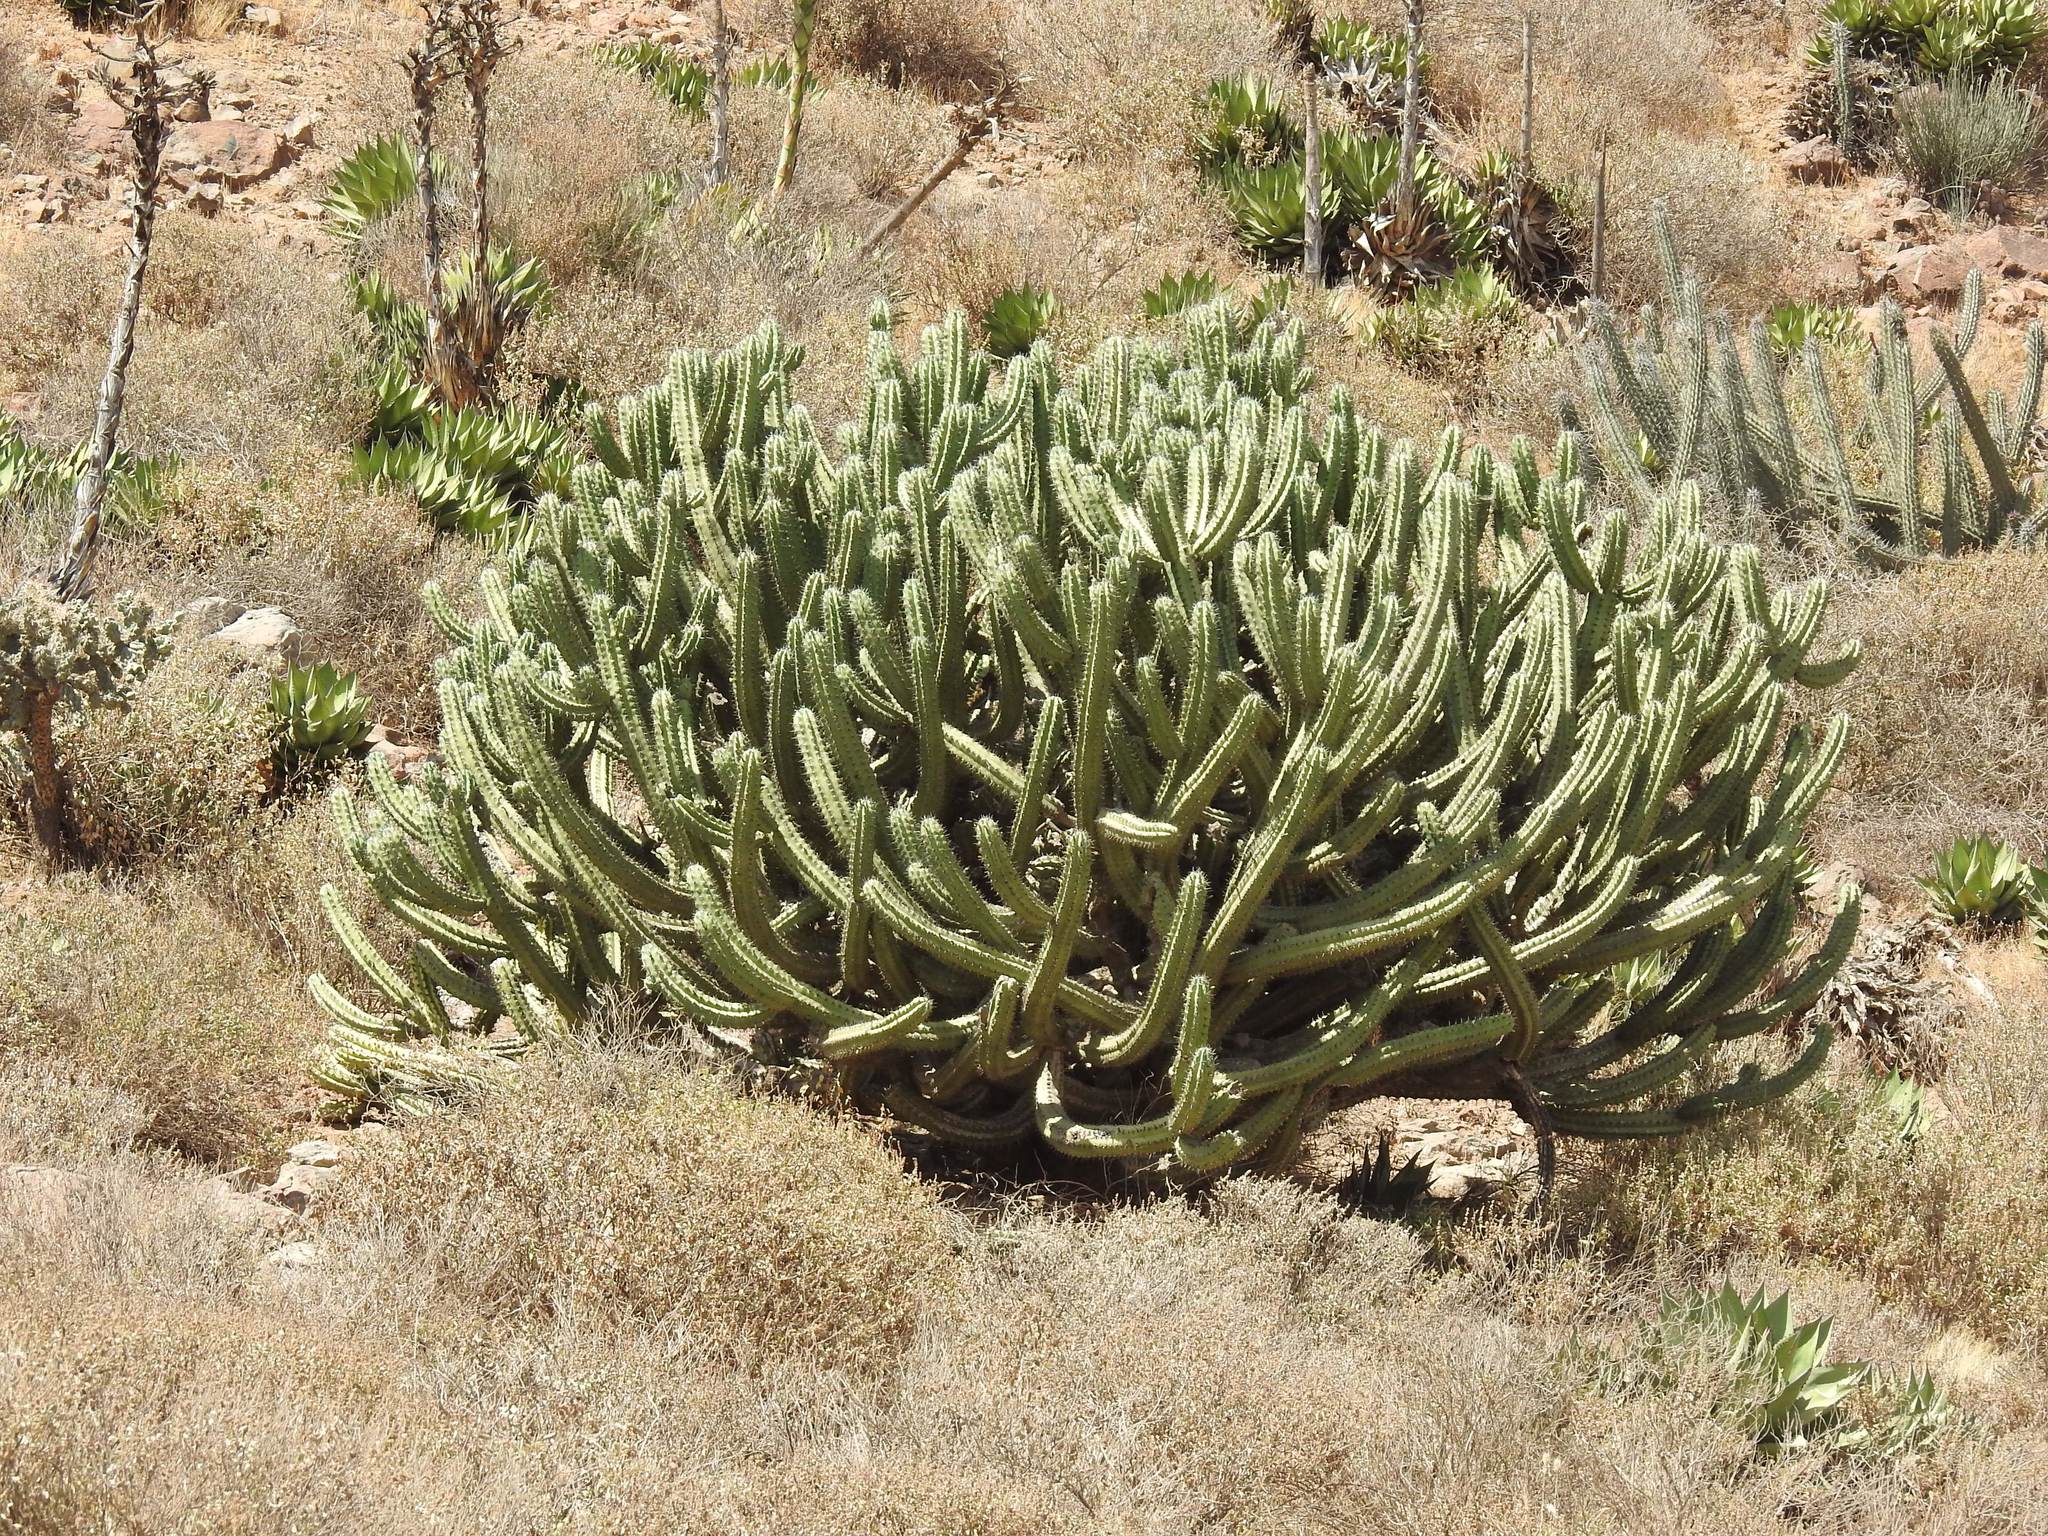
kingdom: Plantae
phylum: Tracheophyta
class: Magnoliopsida
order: Caryophyllales
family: Cactaceae
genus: Myrtillocactus
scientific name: Myrtillocactus cochal
